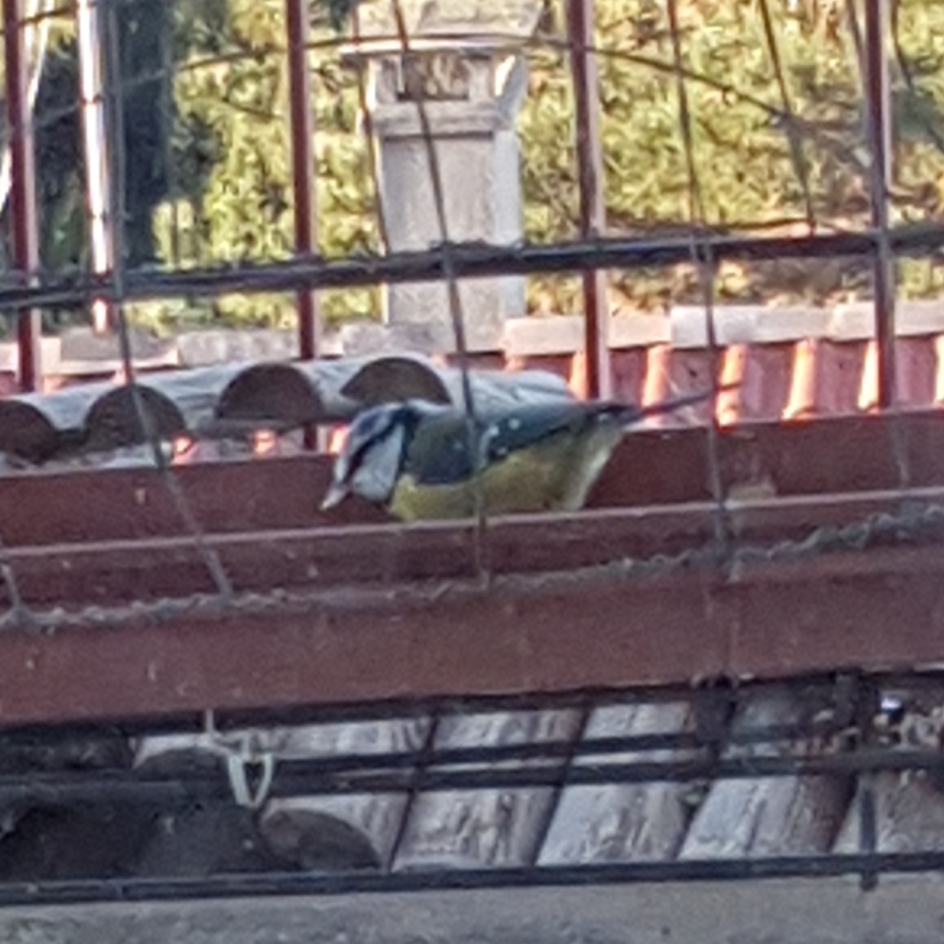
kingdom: Animalia
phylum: Chordata
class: Aves
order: Passeriformes
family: Paridae
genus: Cyanistes
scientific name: Cyanistes caeruleus
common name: Eurasian blue tit
